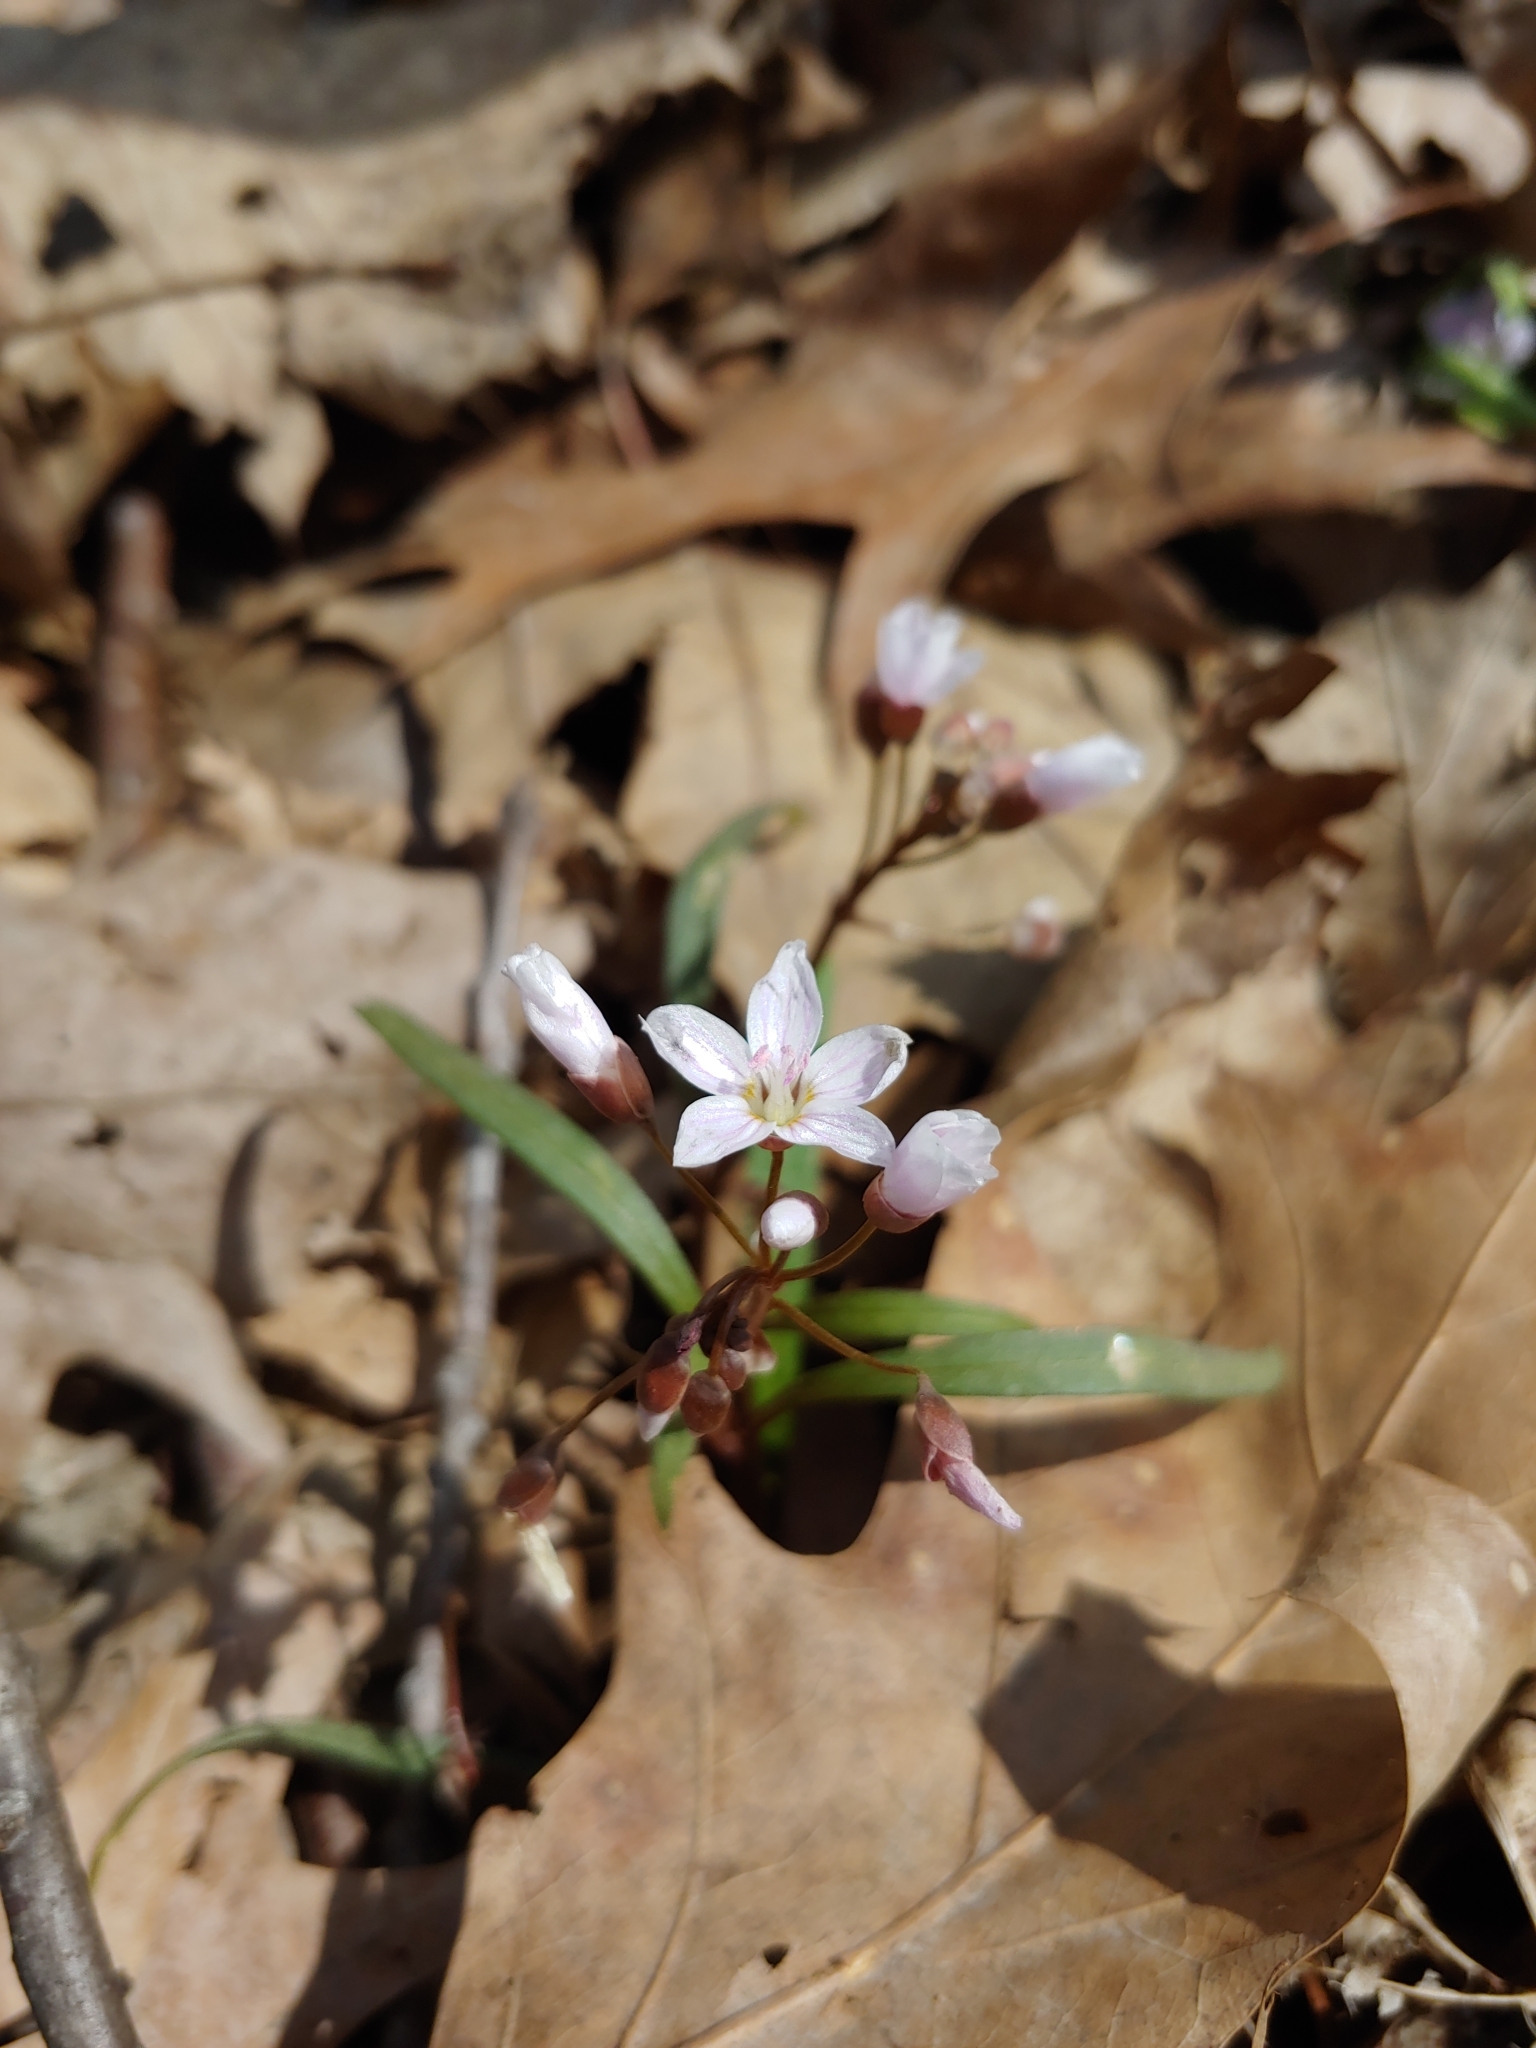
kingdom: Plantae
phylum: Tracheophyta
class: Magnoliopsida
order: Caryophyllales
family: Montiaceae
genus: Claytonia
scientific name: Claytonia virginica
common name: Virginia springbeauty
